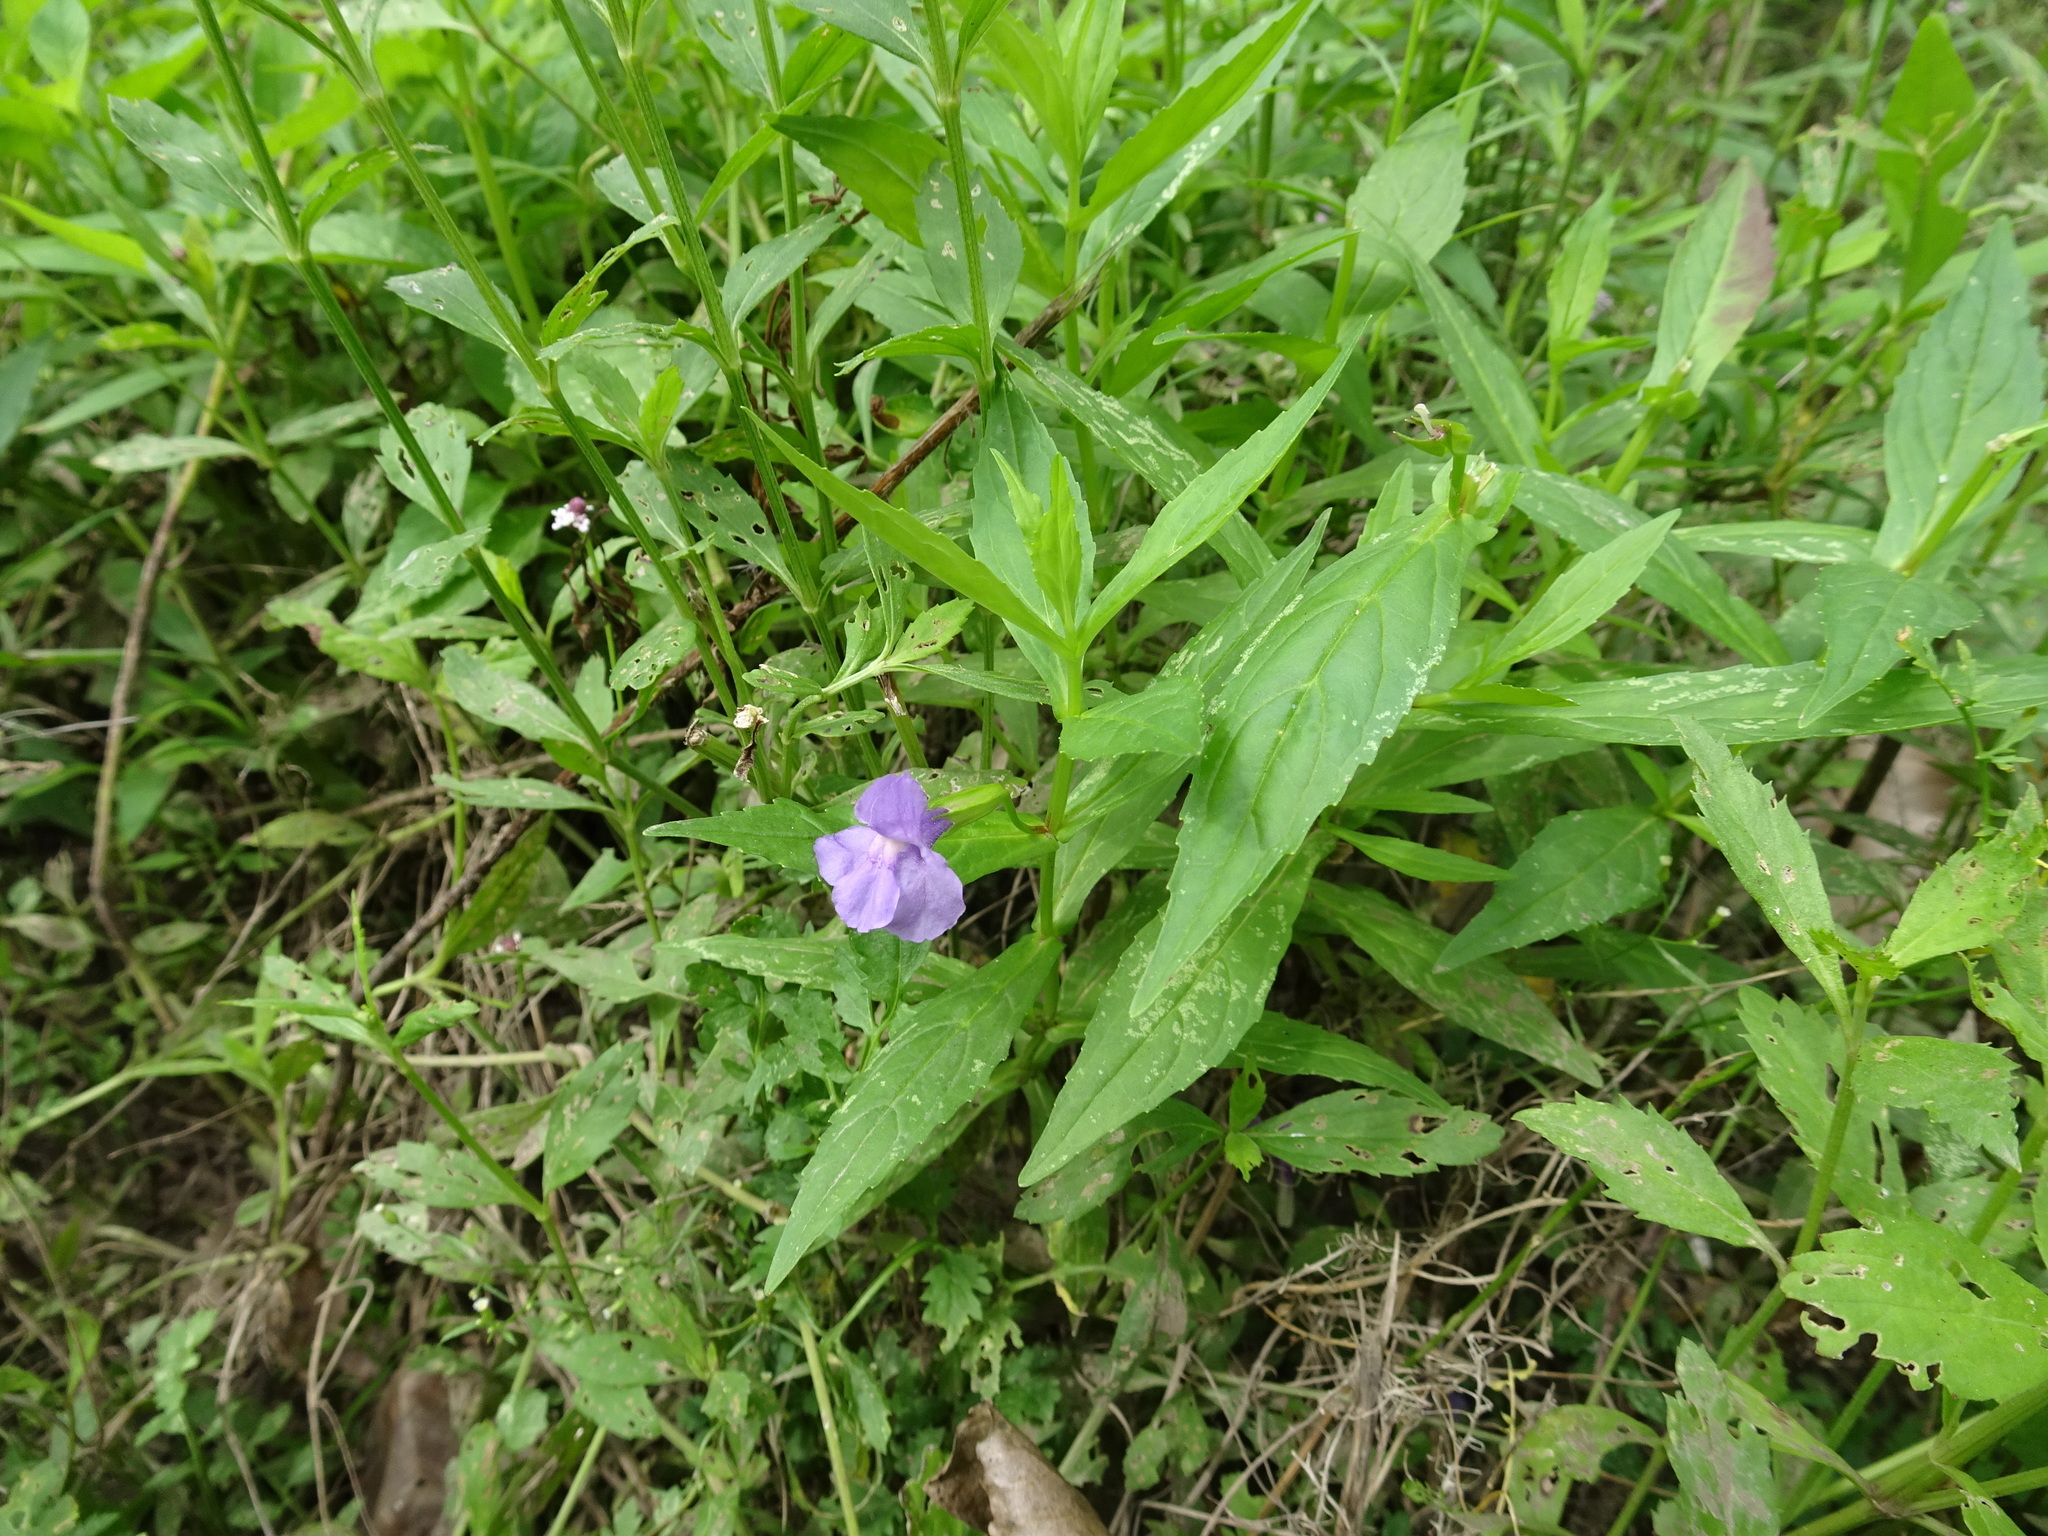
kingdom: Plantae
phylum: Tracheophyta
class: Magnoliopsida
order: Lamiales
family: Phrymaceae
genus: Mimulus
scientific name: Mimulus ringens
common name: Allegheny monkeyflower
